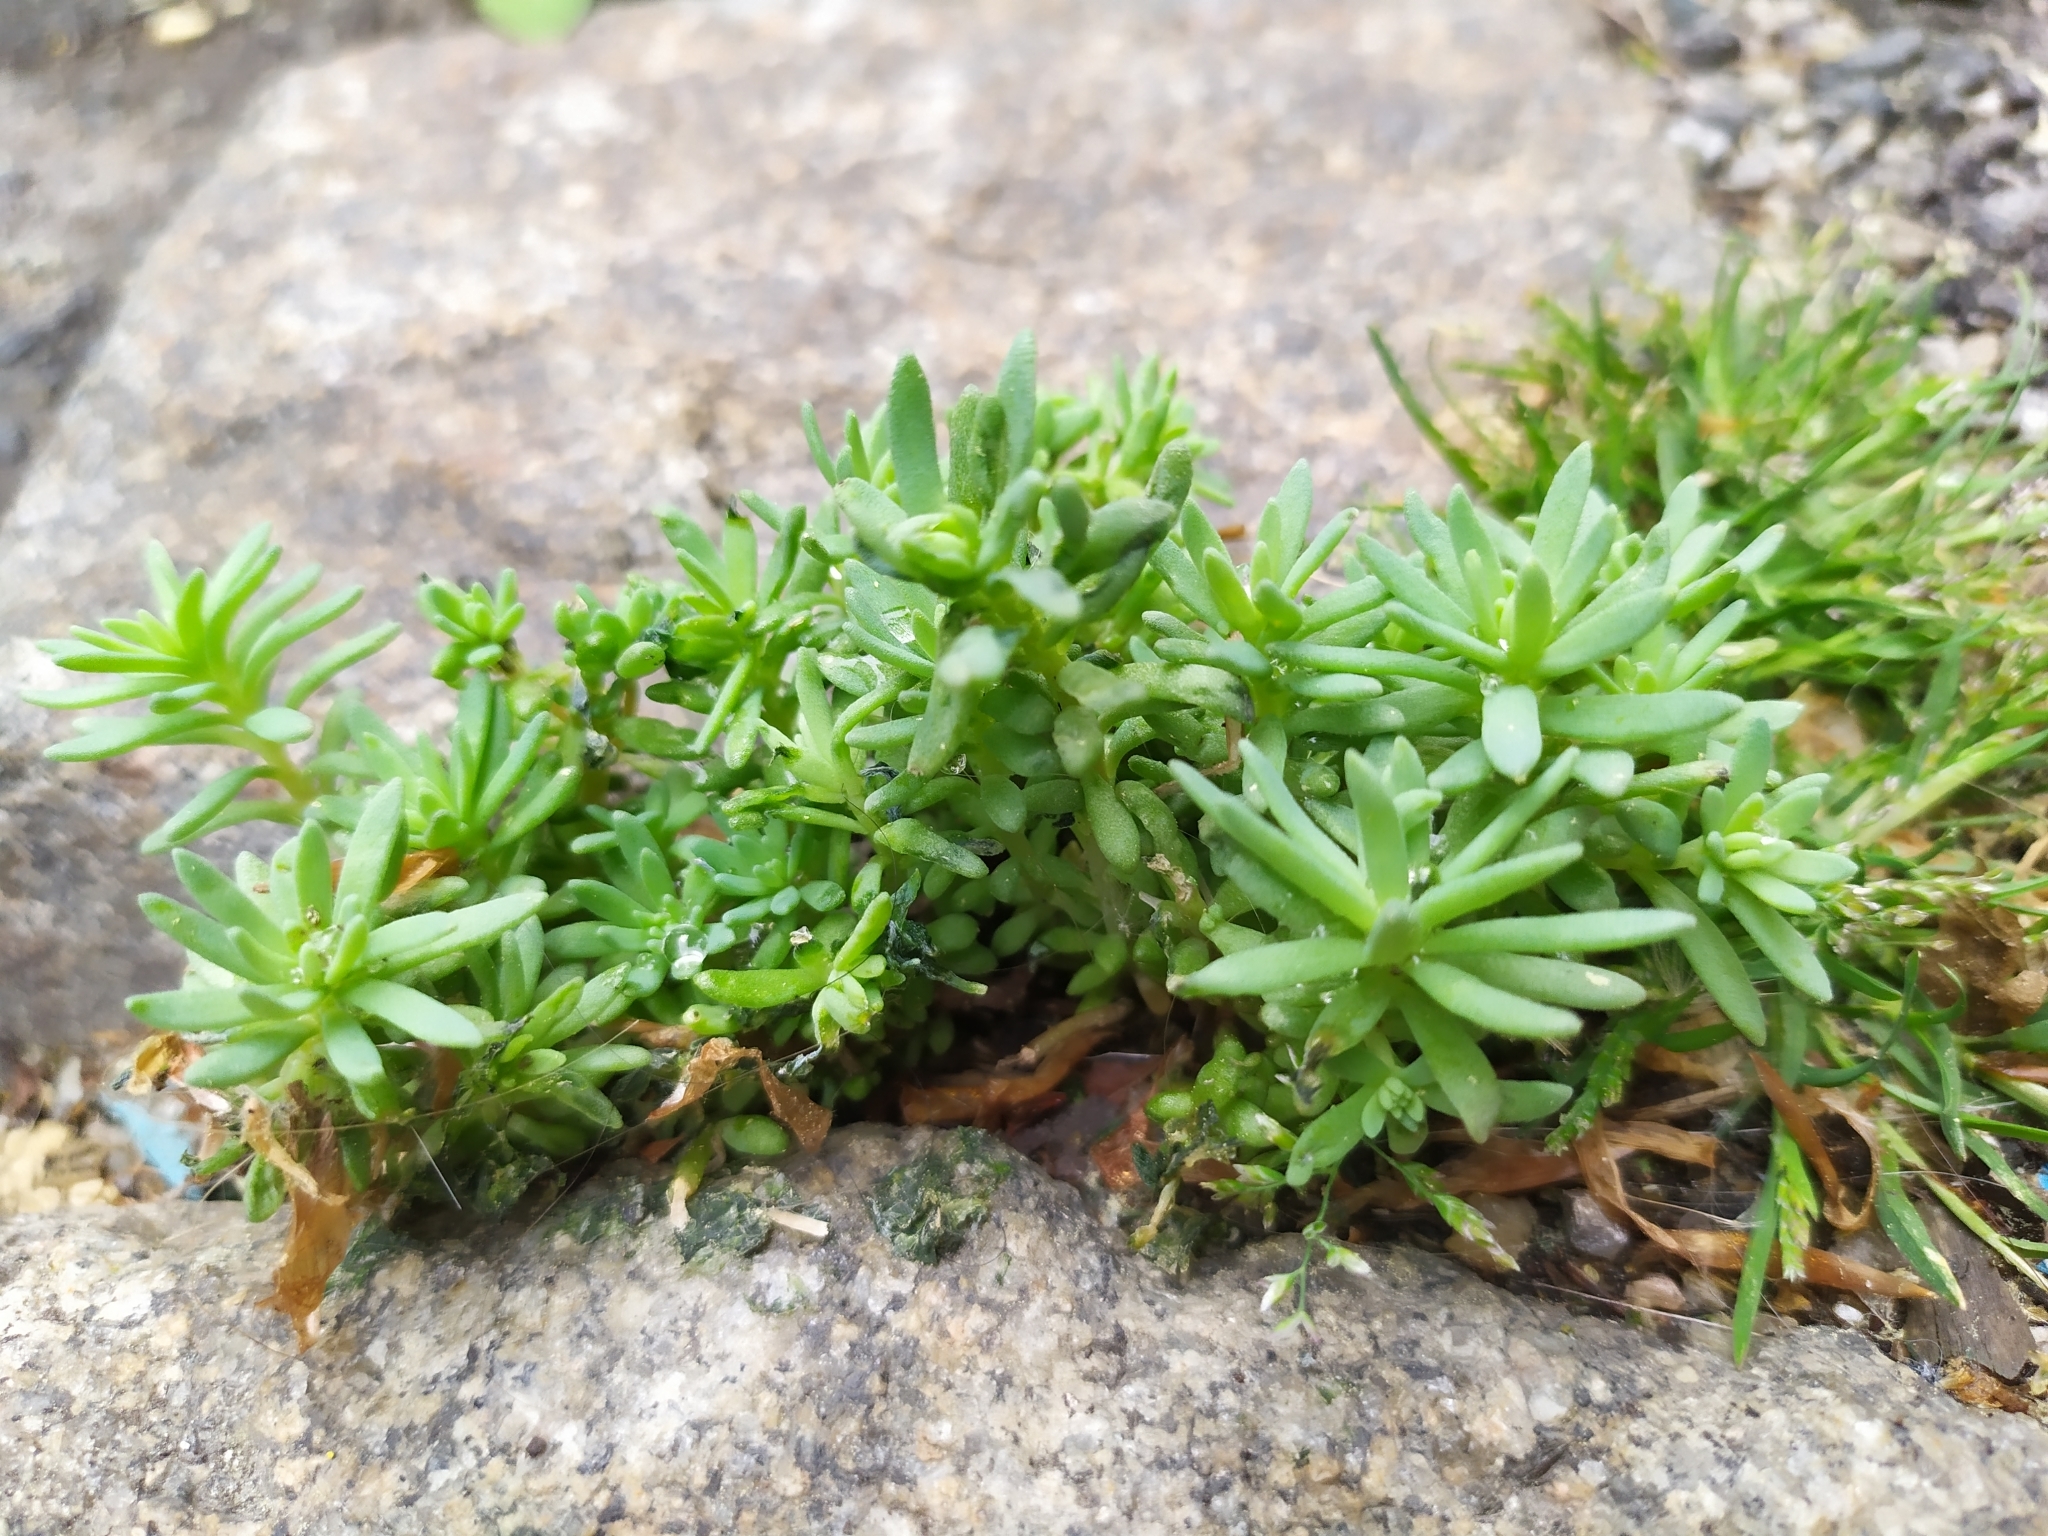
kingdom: Plantae
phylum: Tracheophyta
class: Magnoliopsida
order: Saxifragales
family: Crassulaceae
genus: Sedum
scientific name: Sedum hispanicum
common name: Spanish stonecrop
